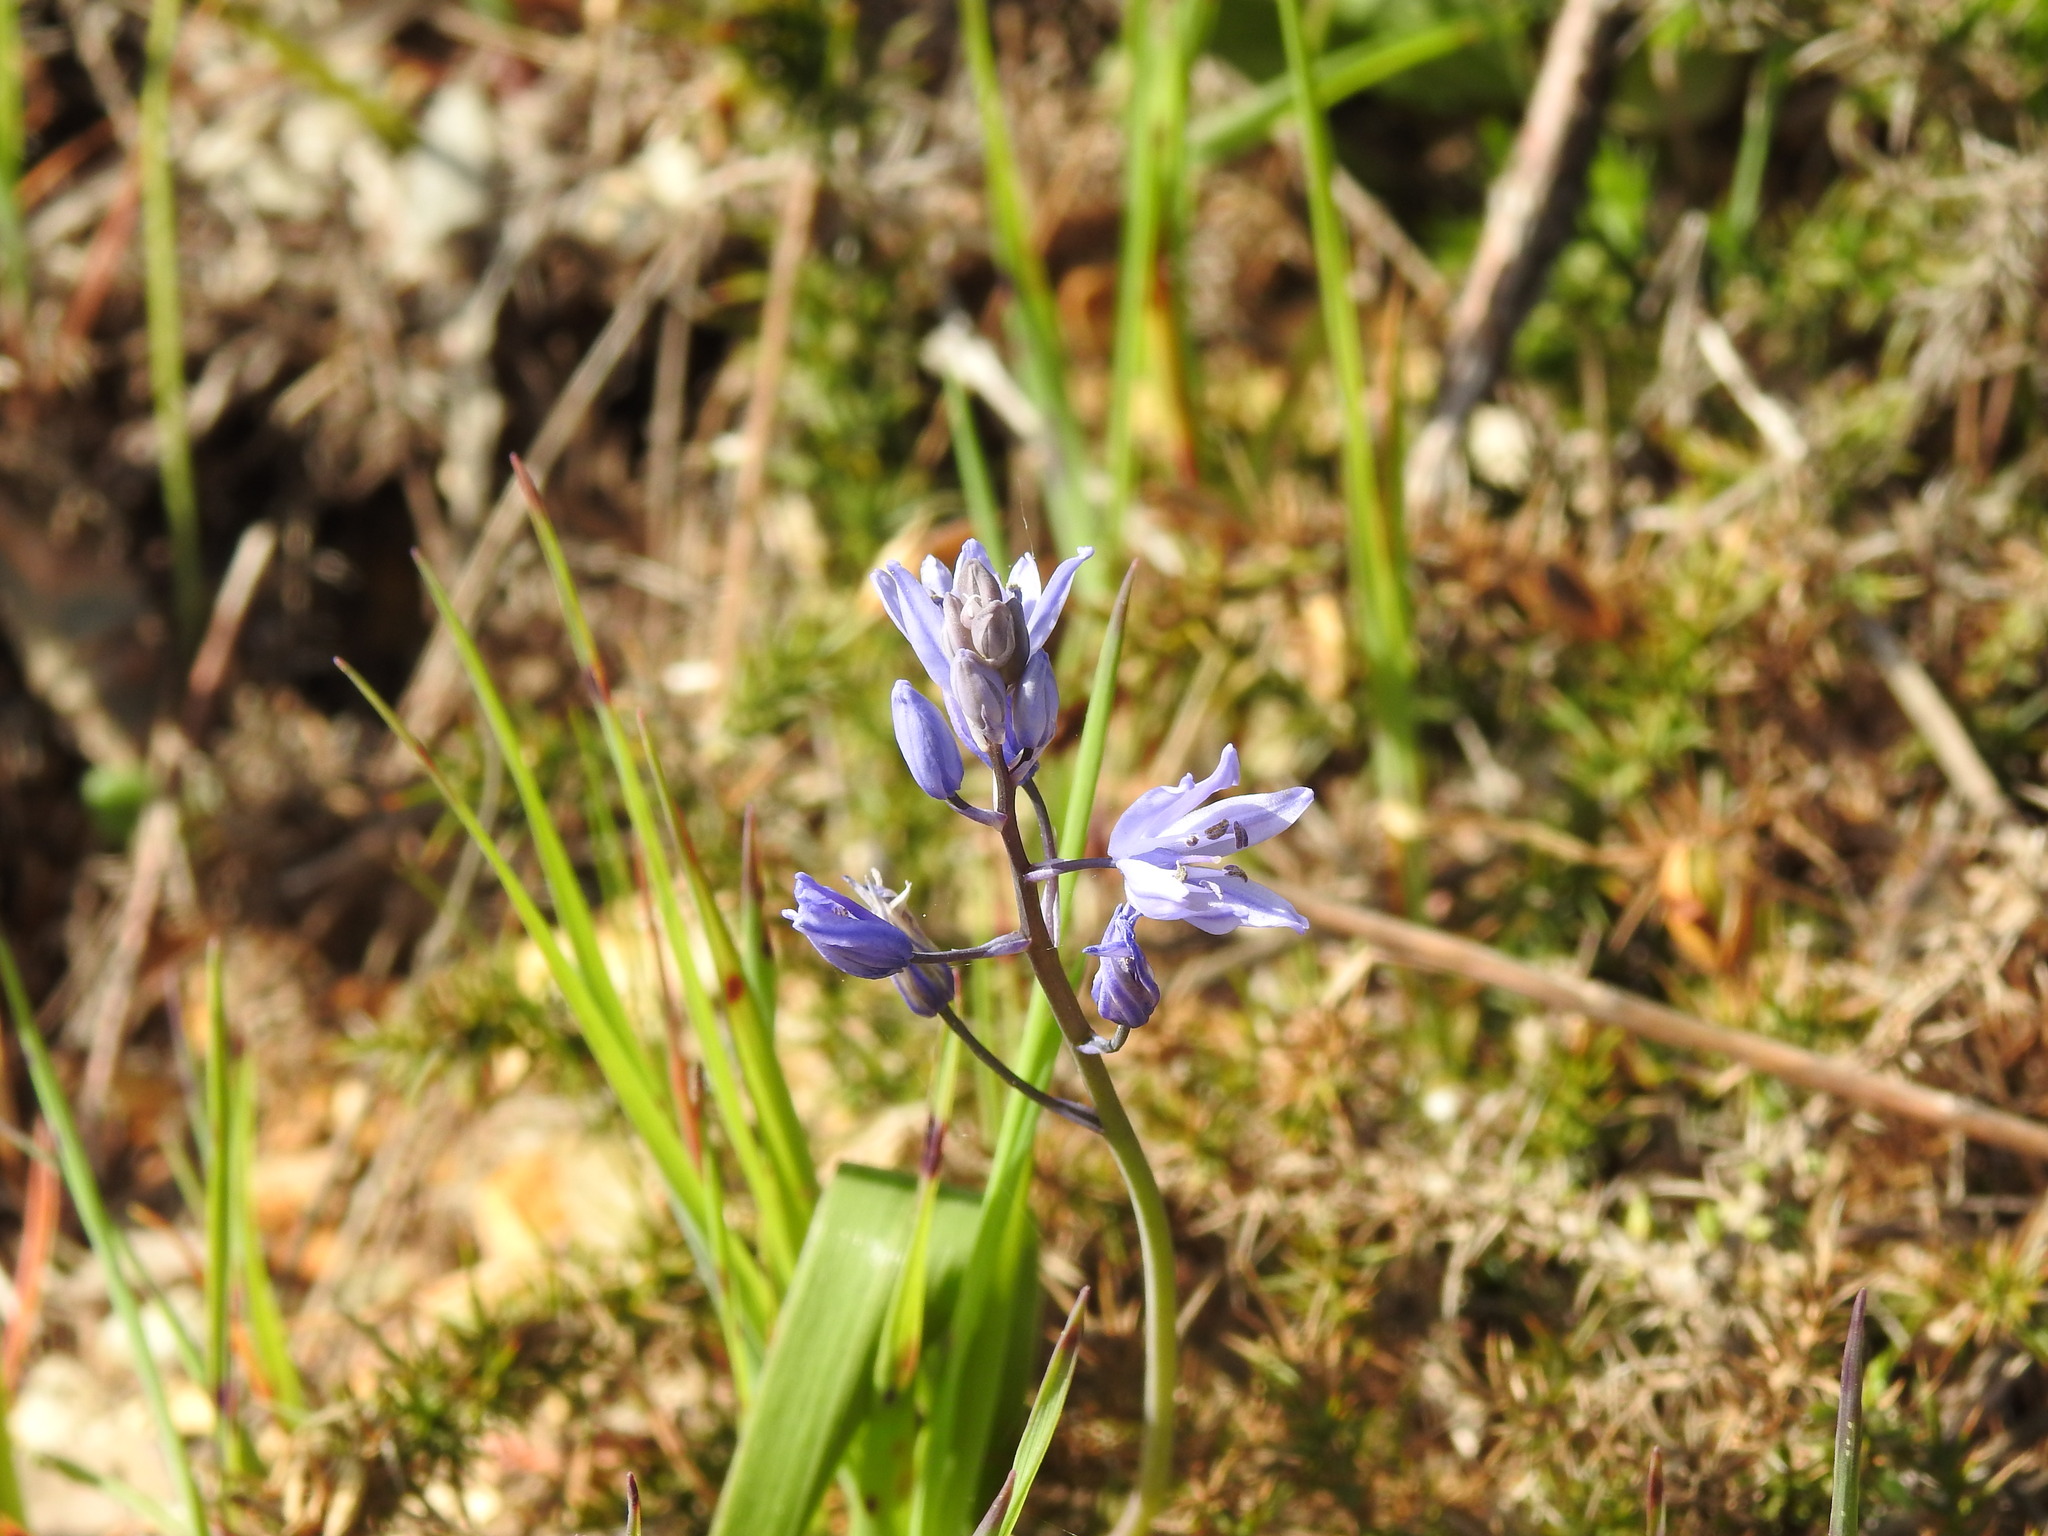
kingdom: Plantae
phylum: Tracheophyta
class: Liliopsida
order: Asparagales
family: Asparagaceae
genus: Scilla
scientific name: Scilla monophyllos
